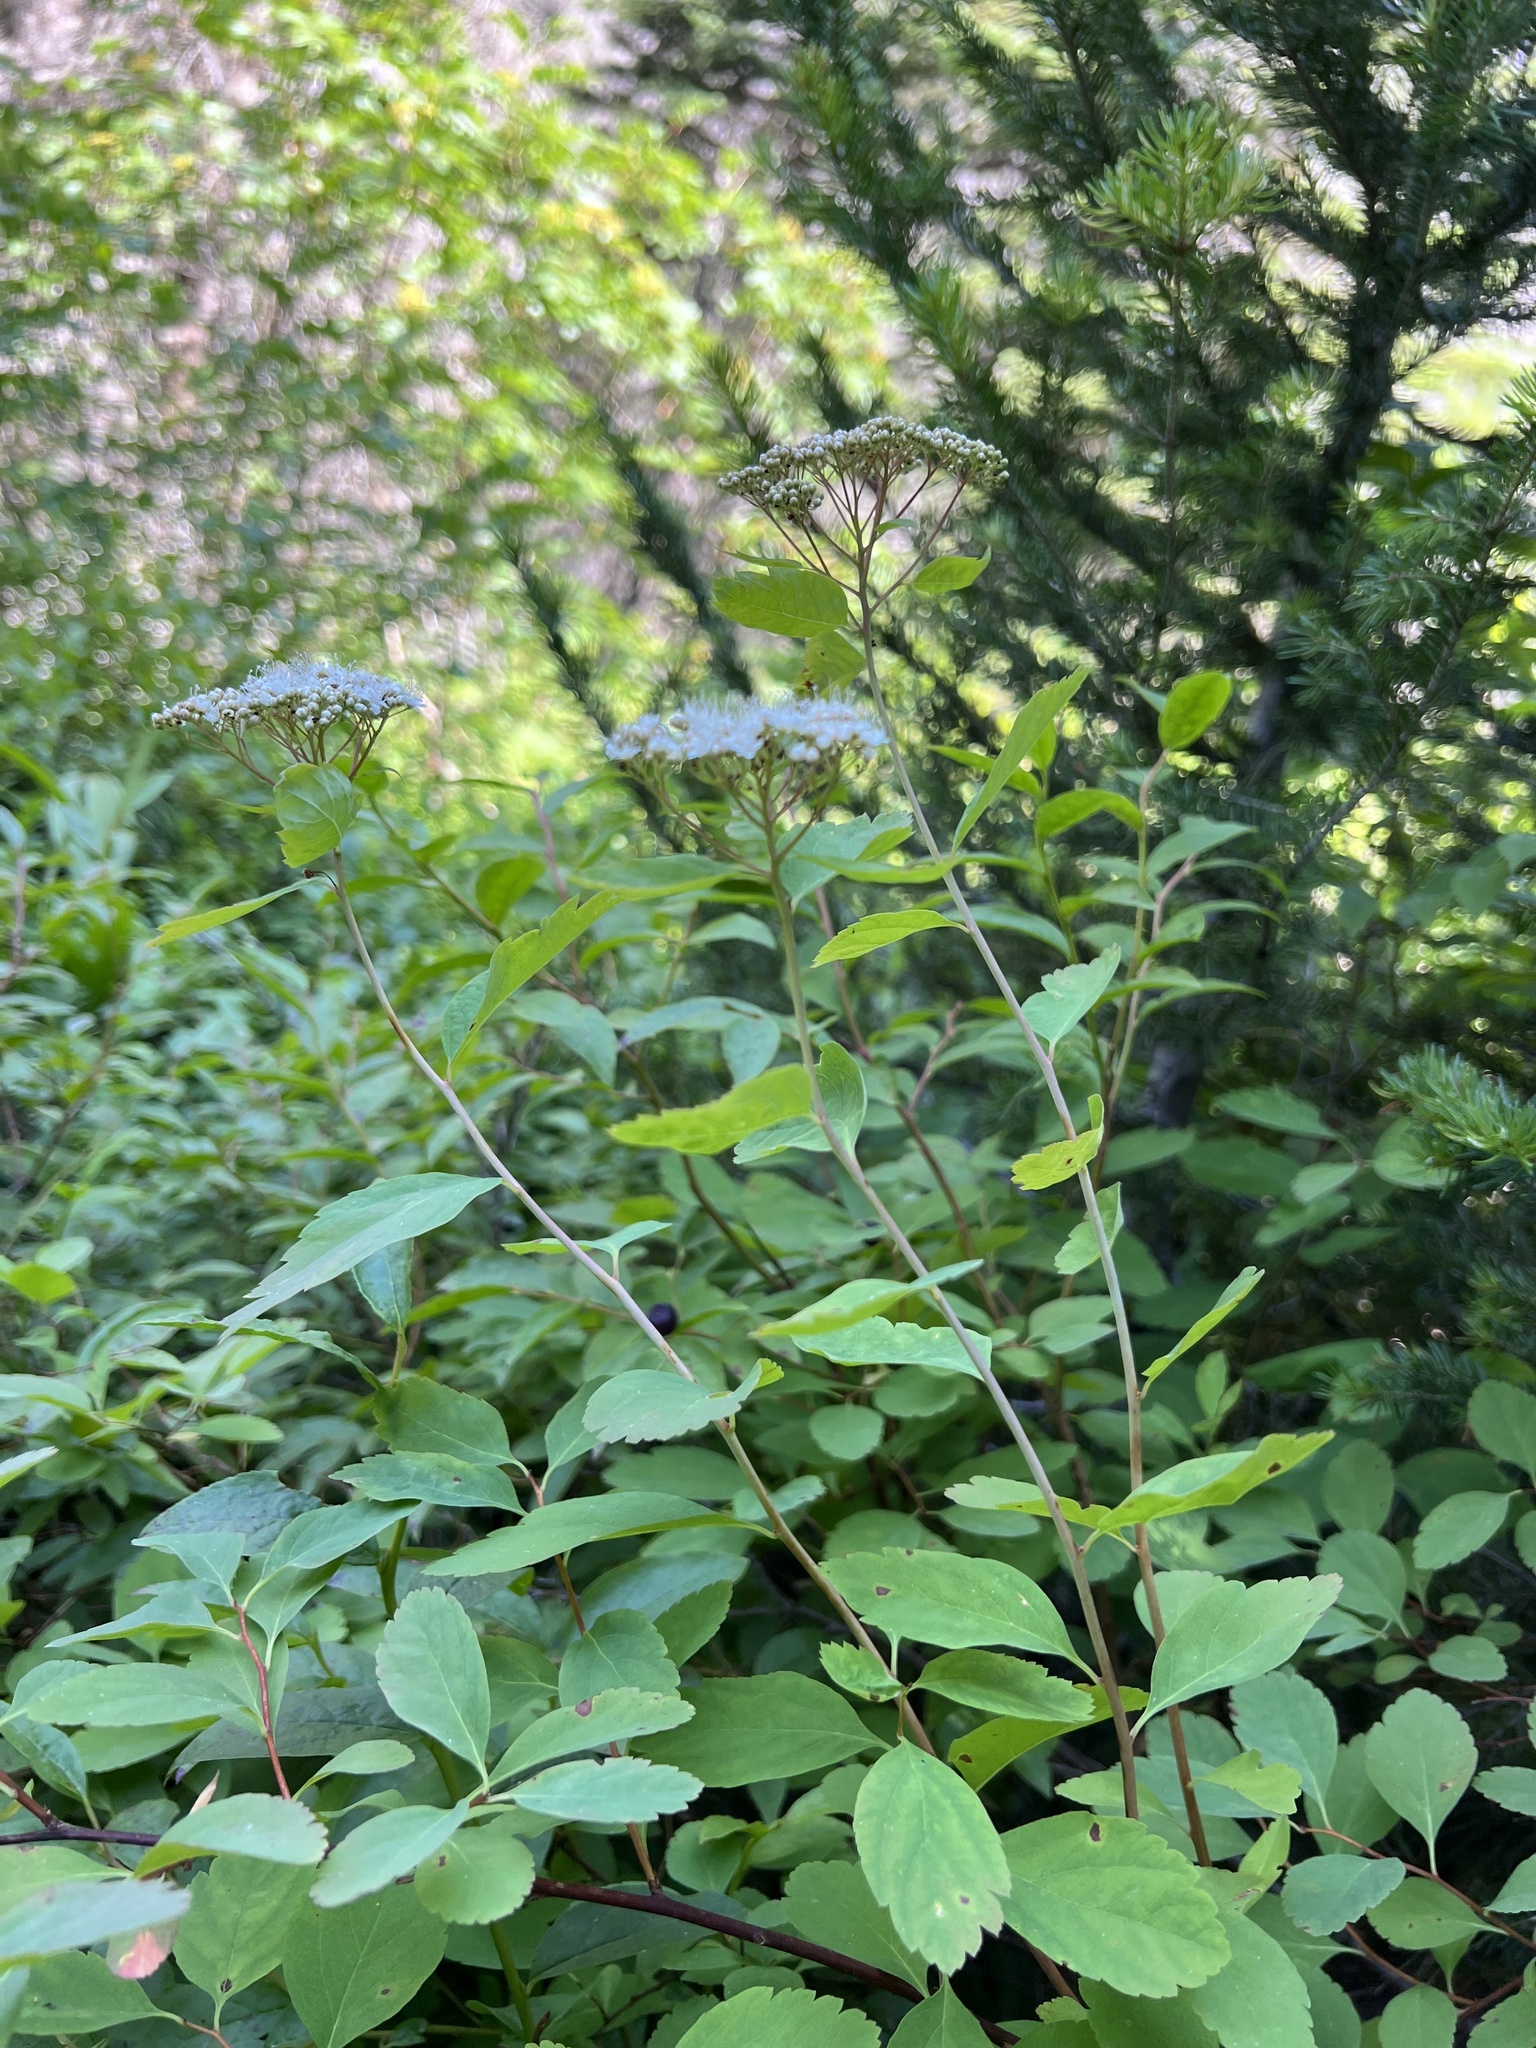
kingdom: Plantae
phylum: Tracheophyta
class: Magnoliopsida
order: Rosales
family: Rosaceae
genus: Spiraea
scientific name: Spiraea lucida
